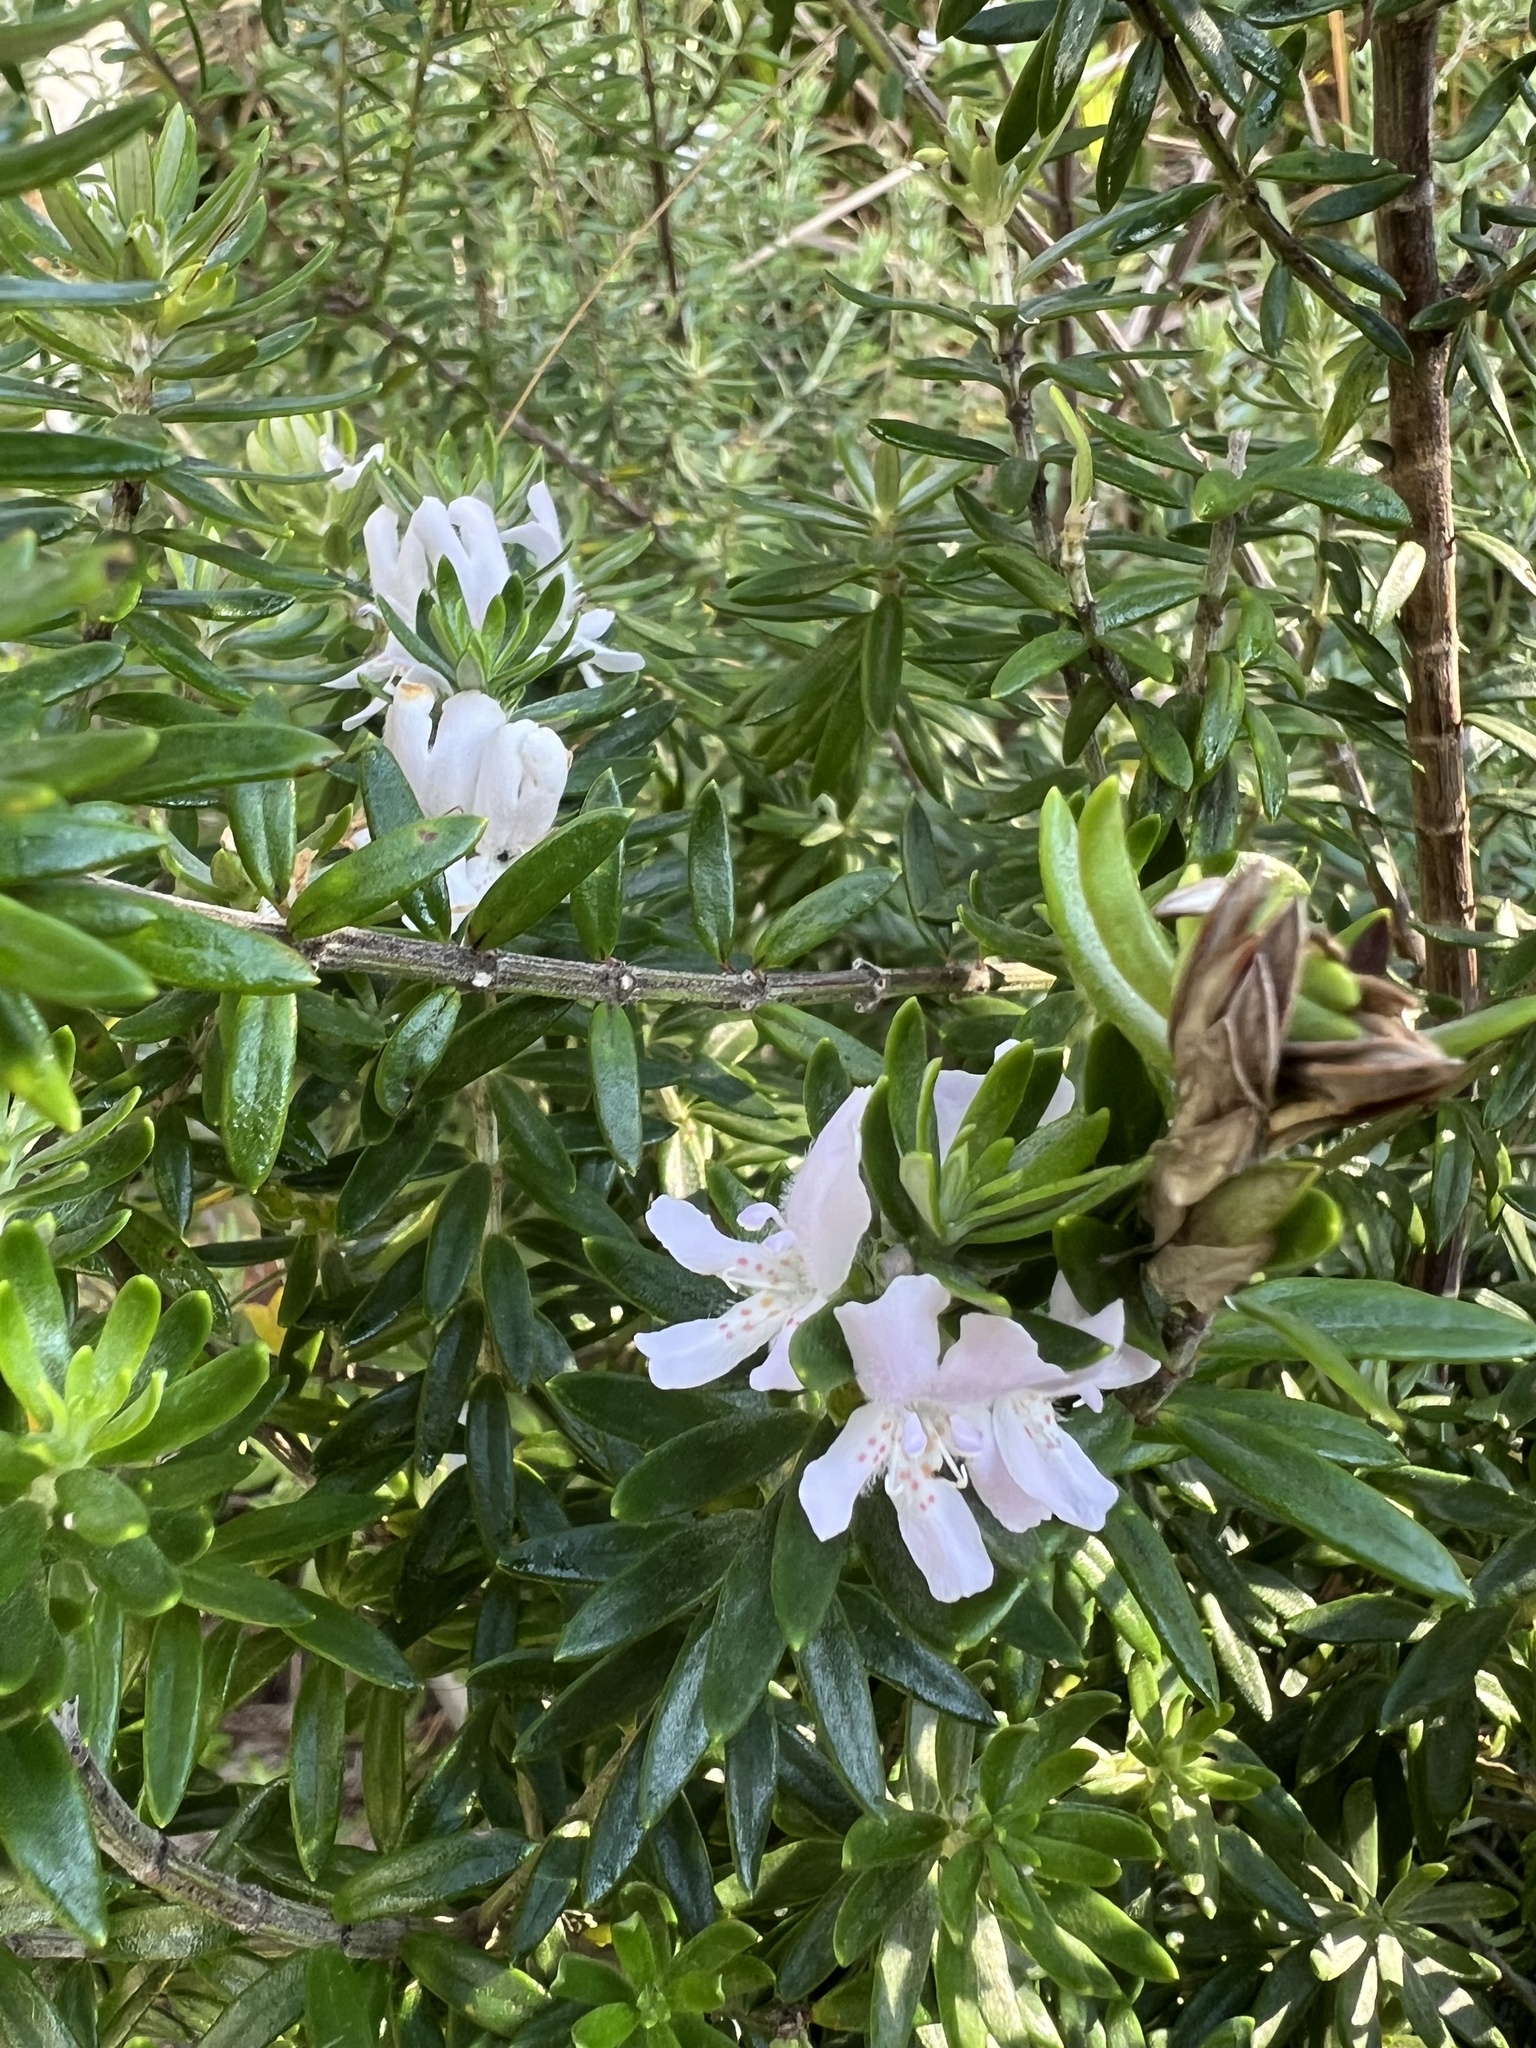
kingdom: Plantae
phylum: Tracheophyta
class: Magnoliopsida
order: Lamiales
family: Lamiaceae
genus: Westringia
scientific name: Westringia fruticosa
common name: Coastal-rosemary
